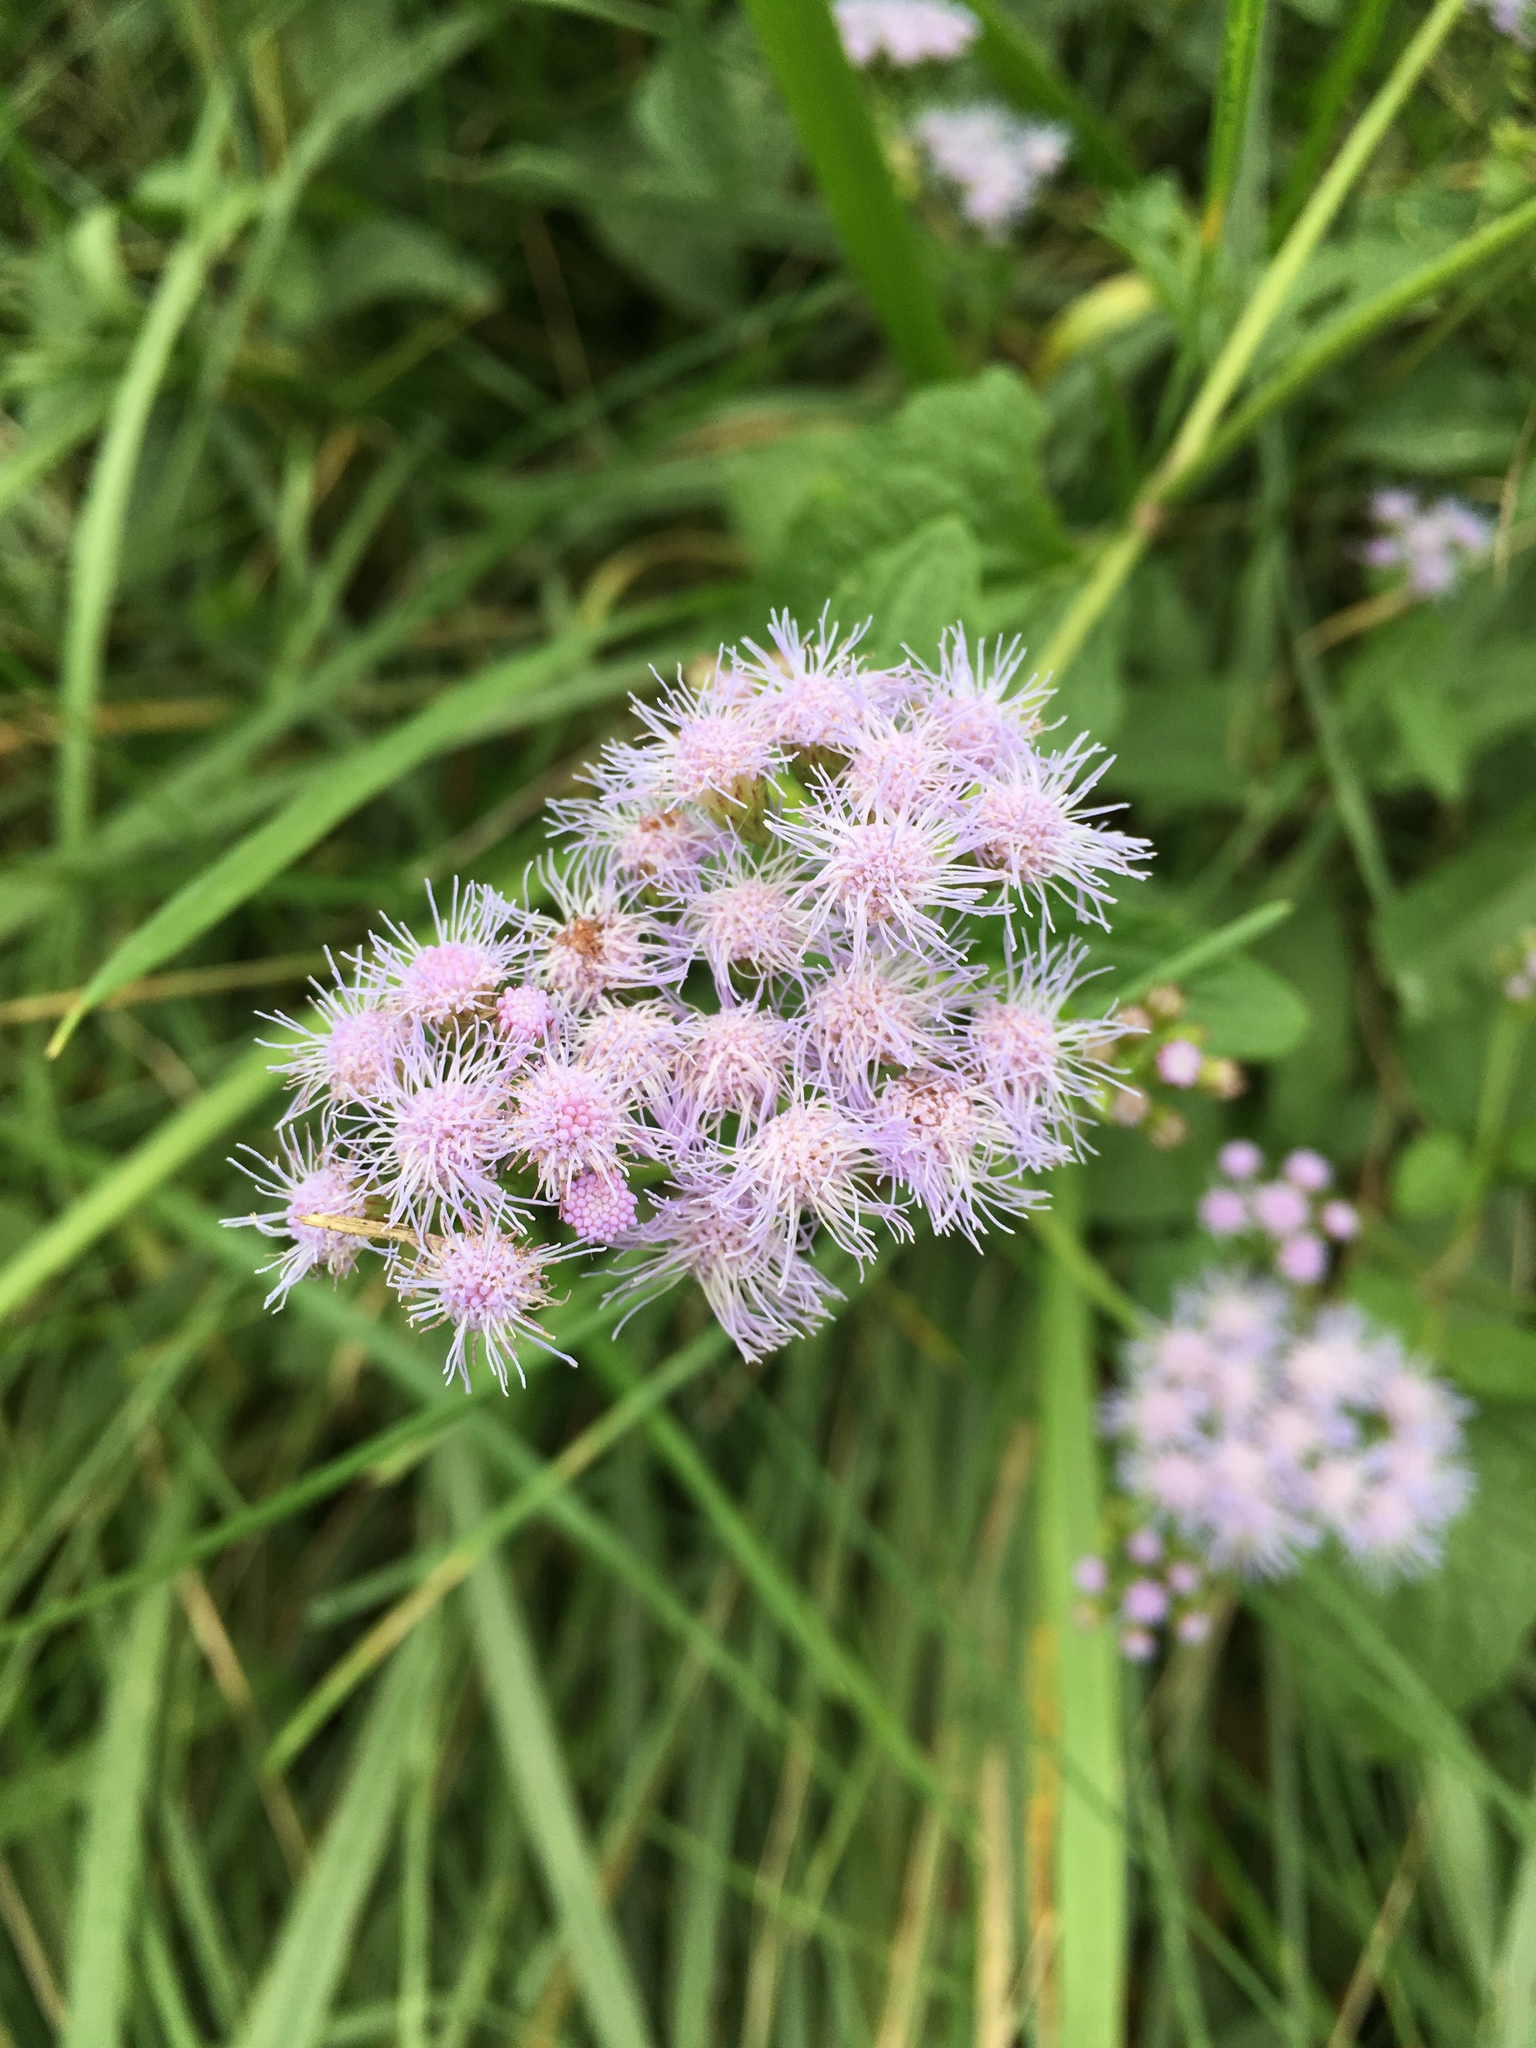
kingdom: Plantae
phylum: Tracheophyta
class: Magnoliopsida
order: Asterales
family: Asteraceae
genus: Conoclinium
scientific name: Conoclinium coelestinum
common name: Blue mistflower
